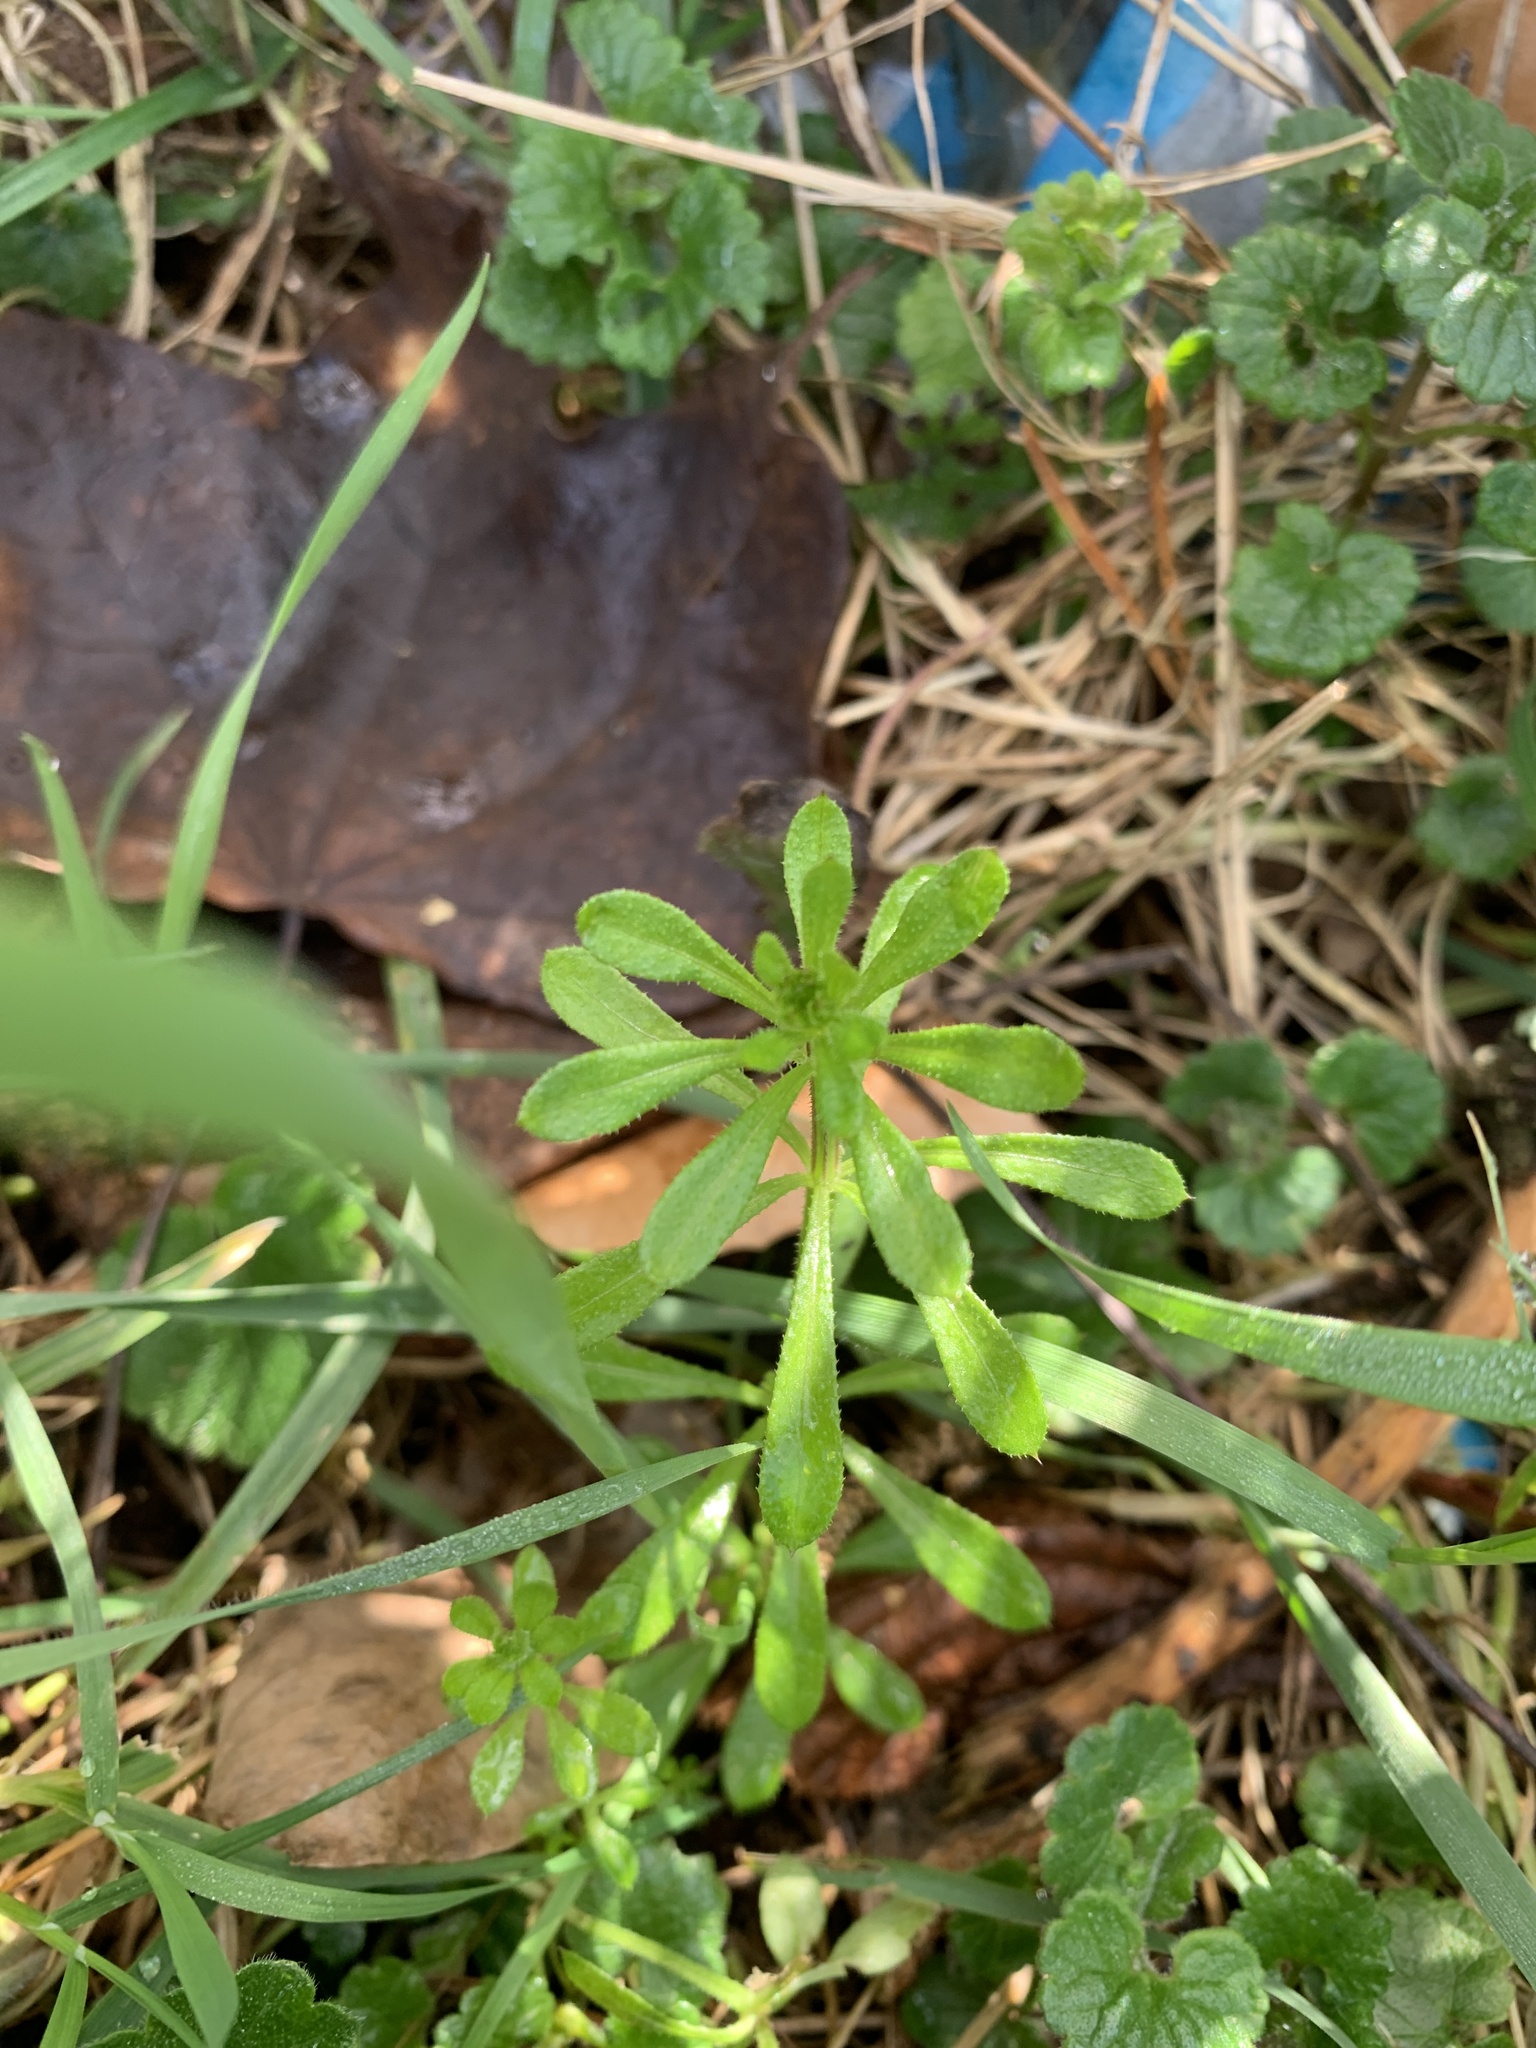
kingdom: Plantae
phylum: Tracheophyta
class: Magnoliopsida
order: Gentianales
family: Rubiaceae
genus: Galium
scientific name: Galium aparine
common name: Cleavers
